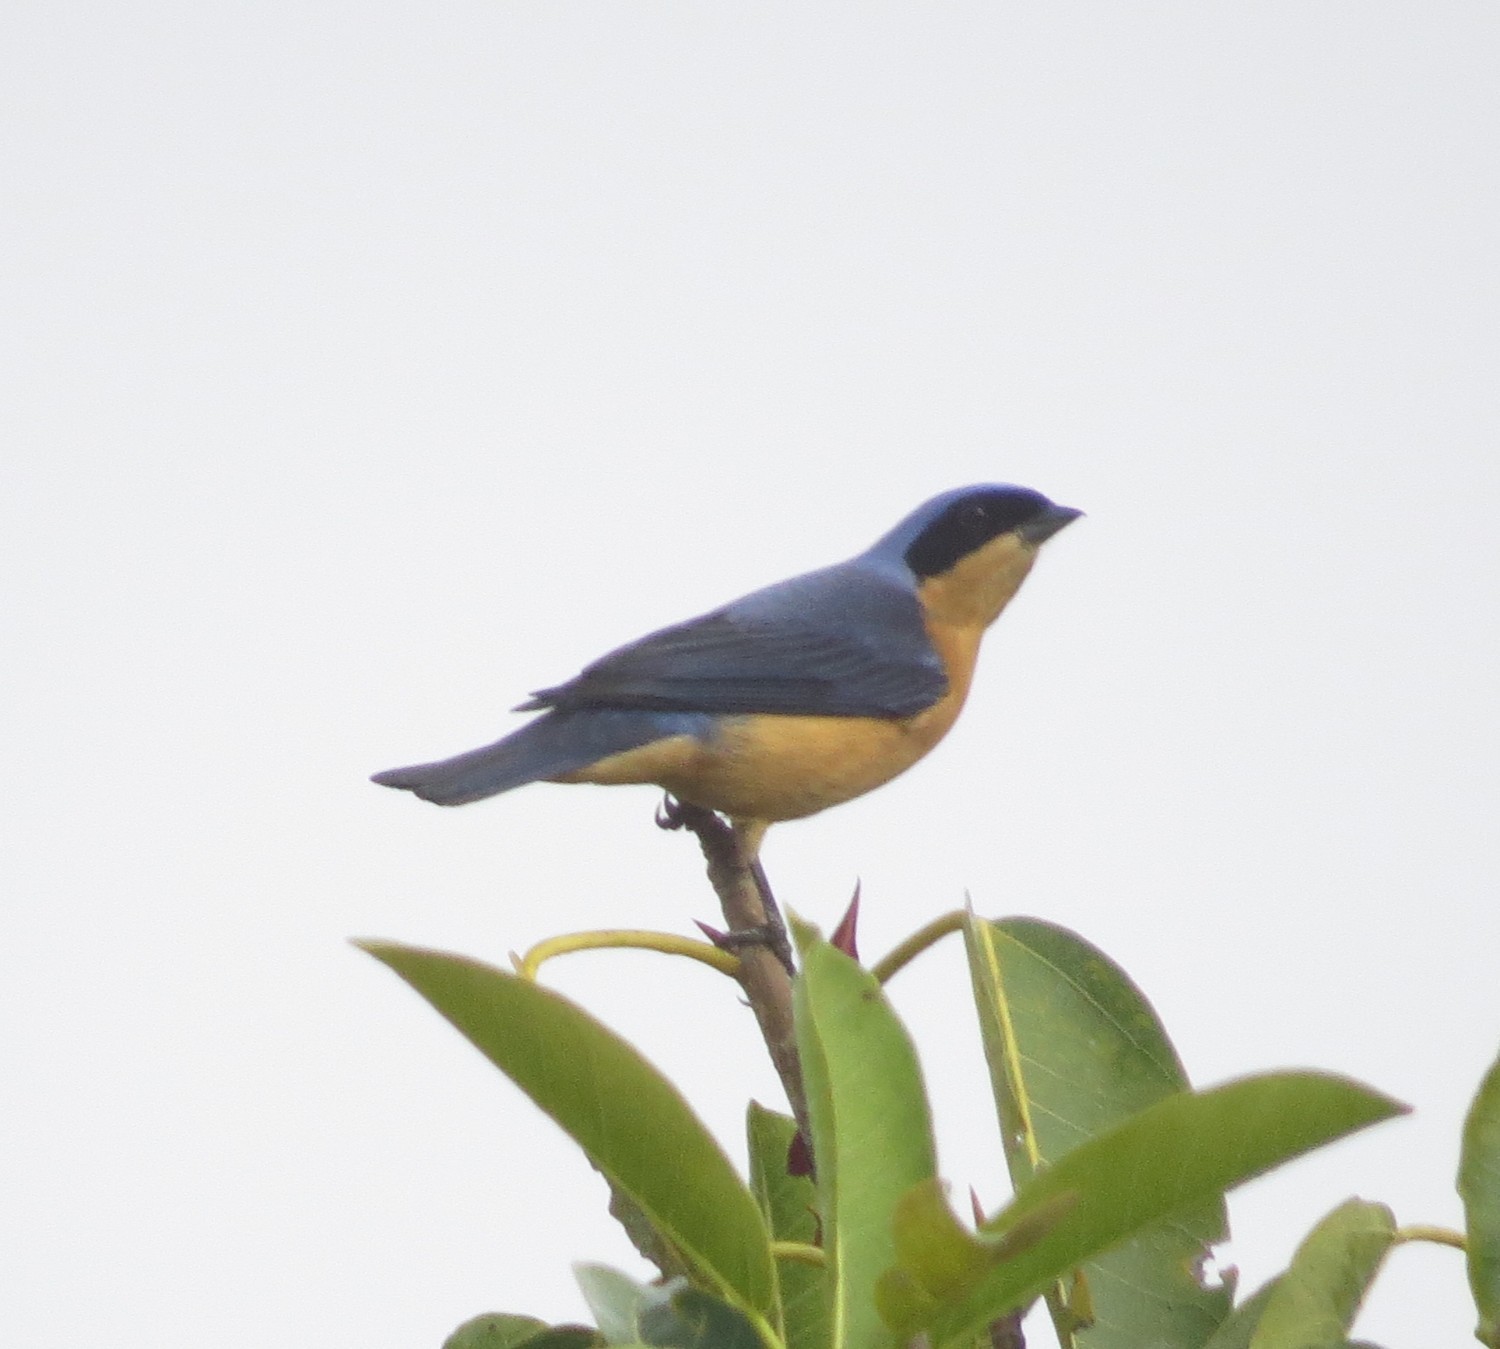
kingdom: Animalia
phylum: Chordata
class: Aves
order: Passeriformes
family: Thraupidae
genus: Pipraeidea
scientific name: Pipraeidea melanonota
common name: Fawn-breasted tanager
